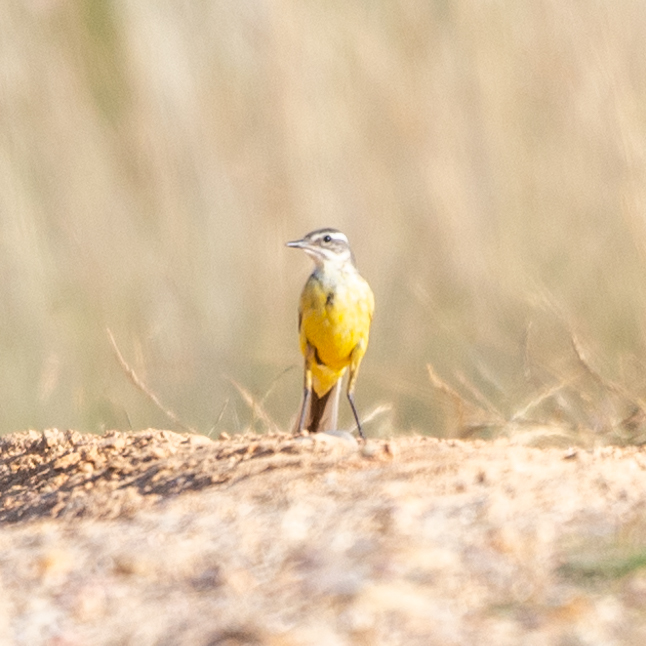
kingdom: Animalia
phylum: Chordata
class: Aves
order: Passeriformes
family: Motacillidae
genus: Motacilla
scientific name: Motacilla flava
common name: Western yellow wagtail
